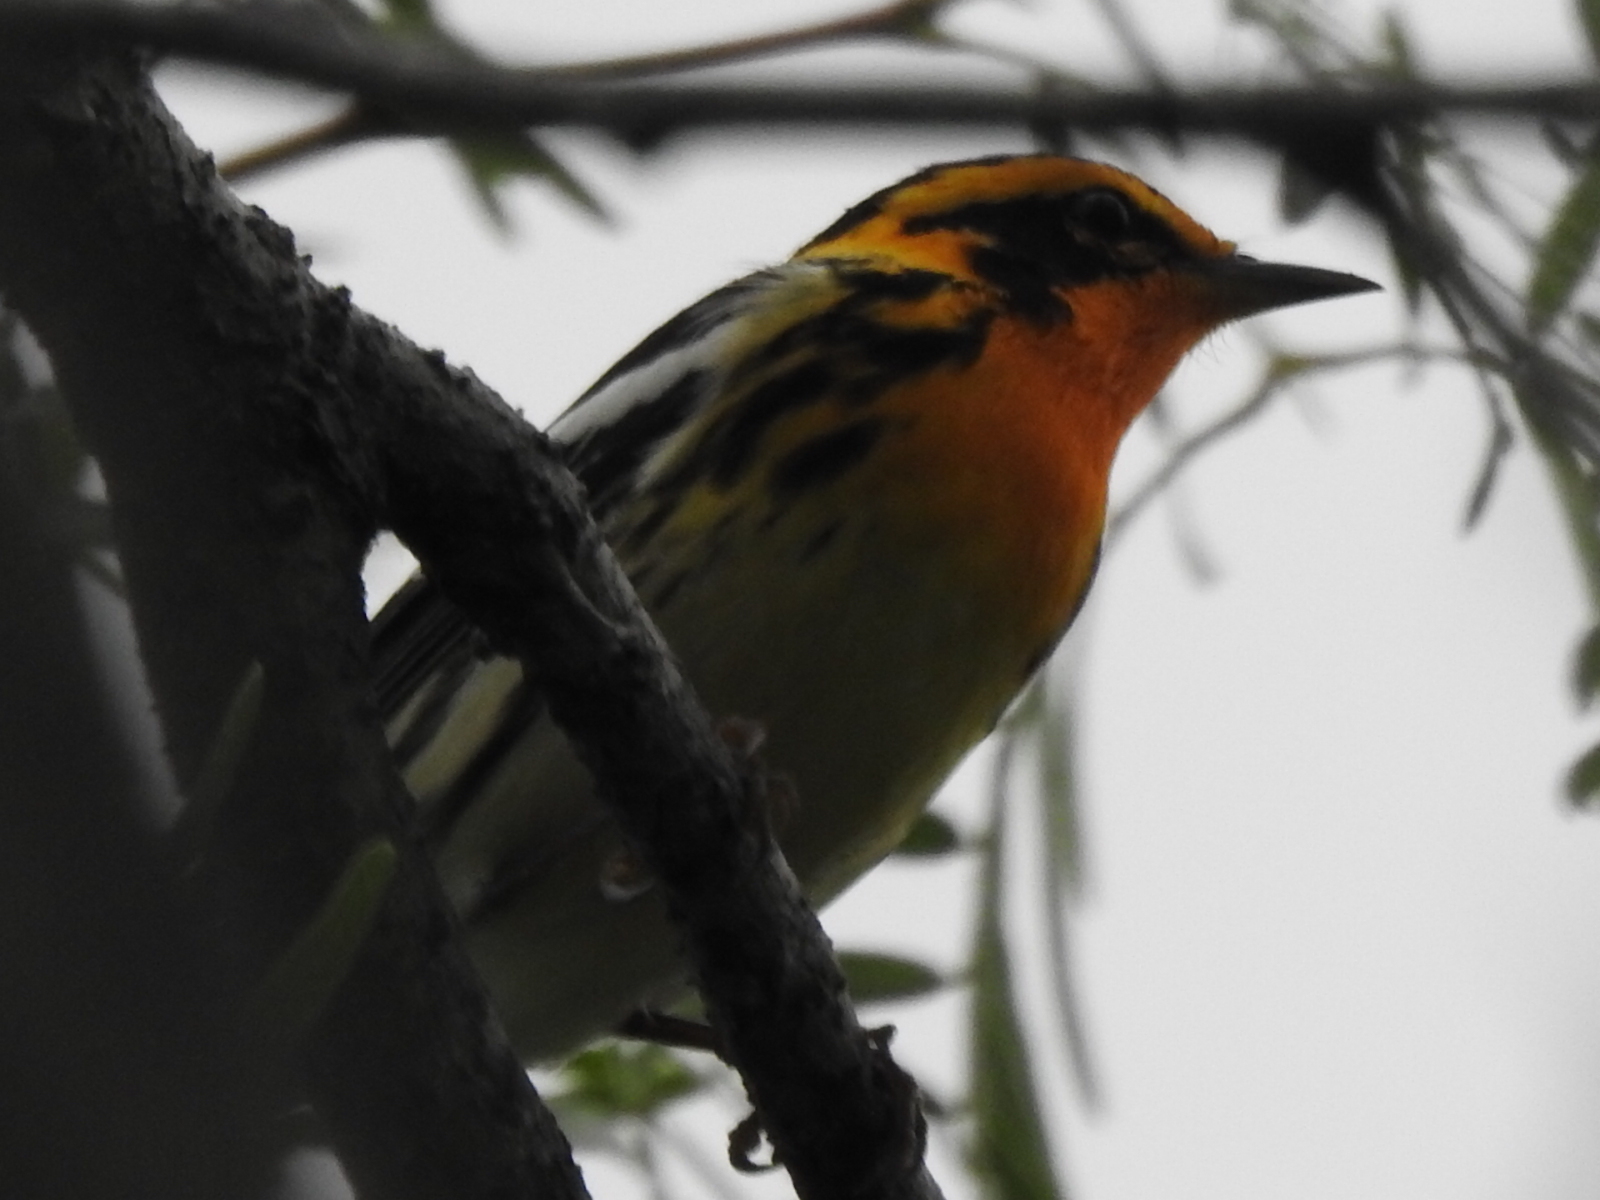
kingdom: Animalia
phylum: Chordata
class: Aves
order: Passeriformes
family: Parulidae
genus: Setophaga
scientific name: Setophaga fusca
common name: Blackburnian warbler
